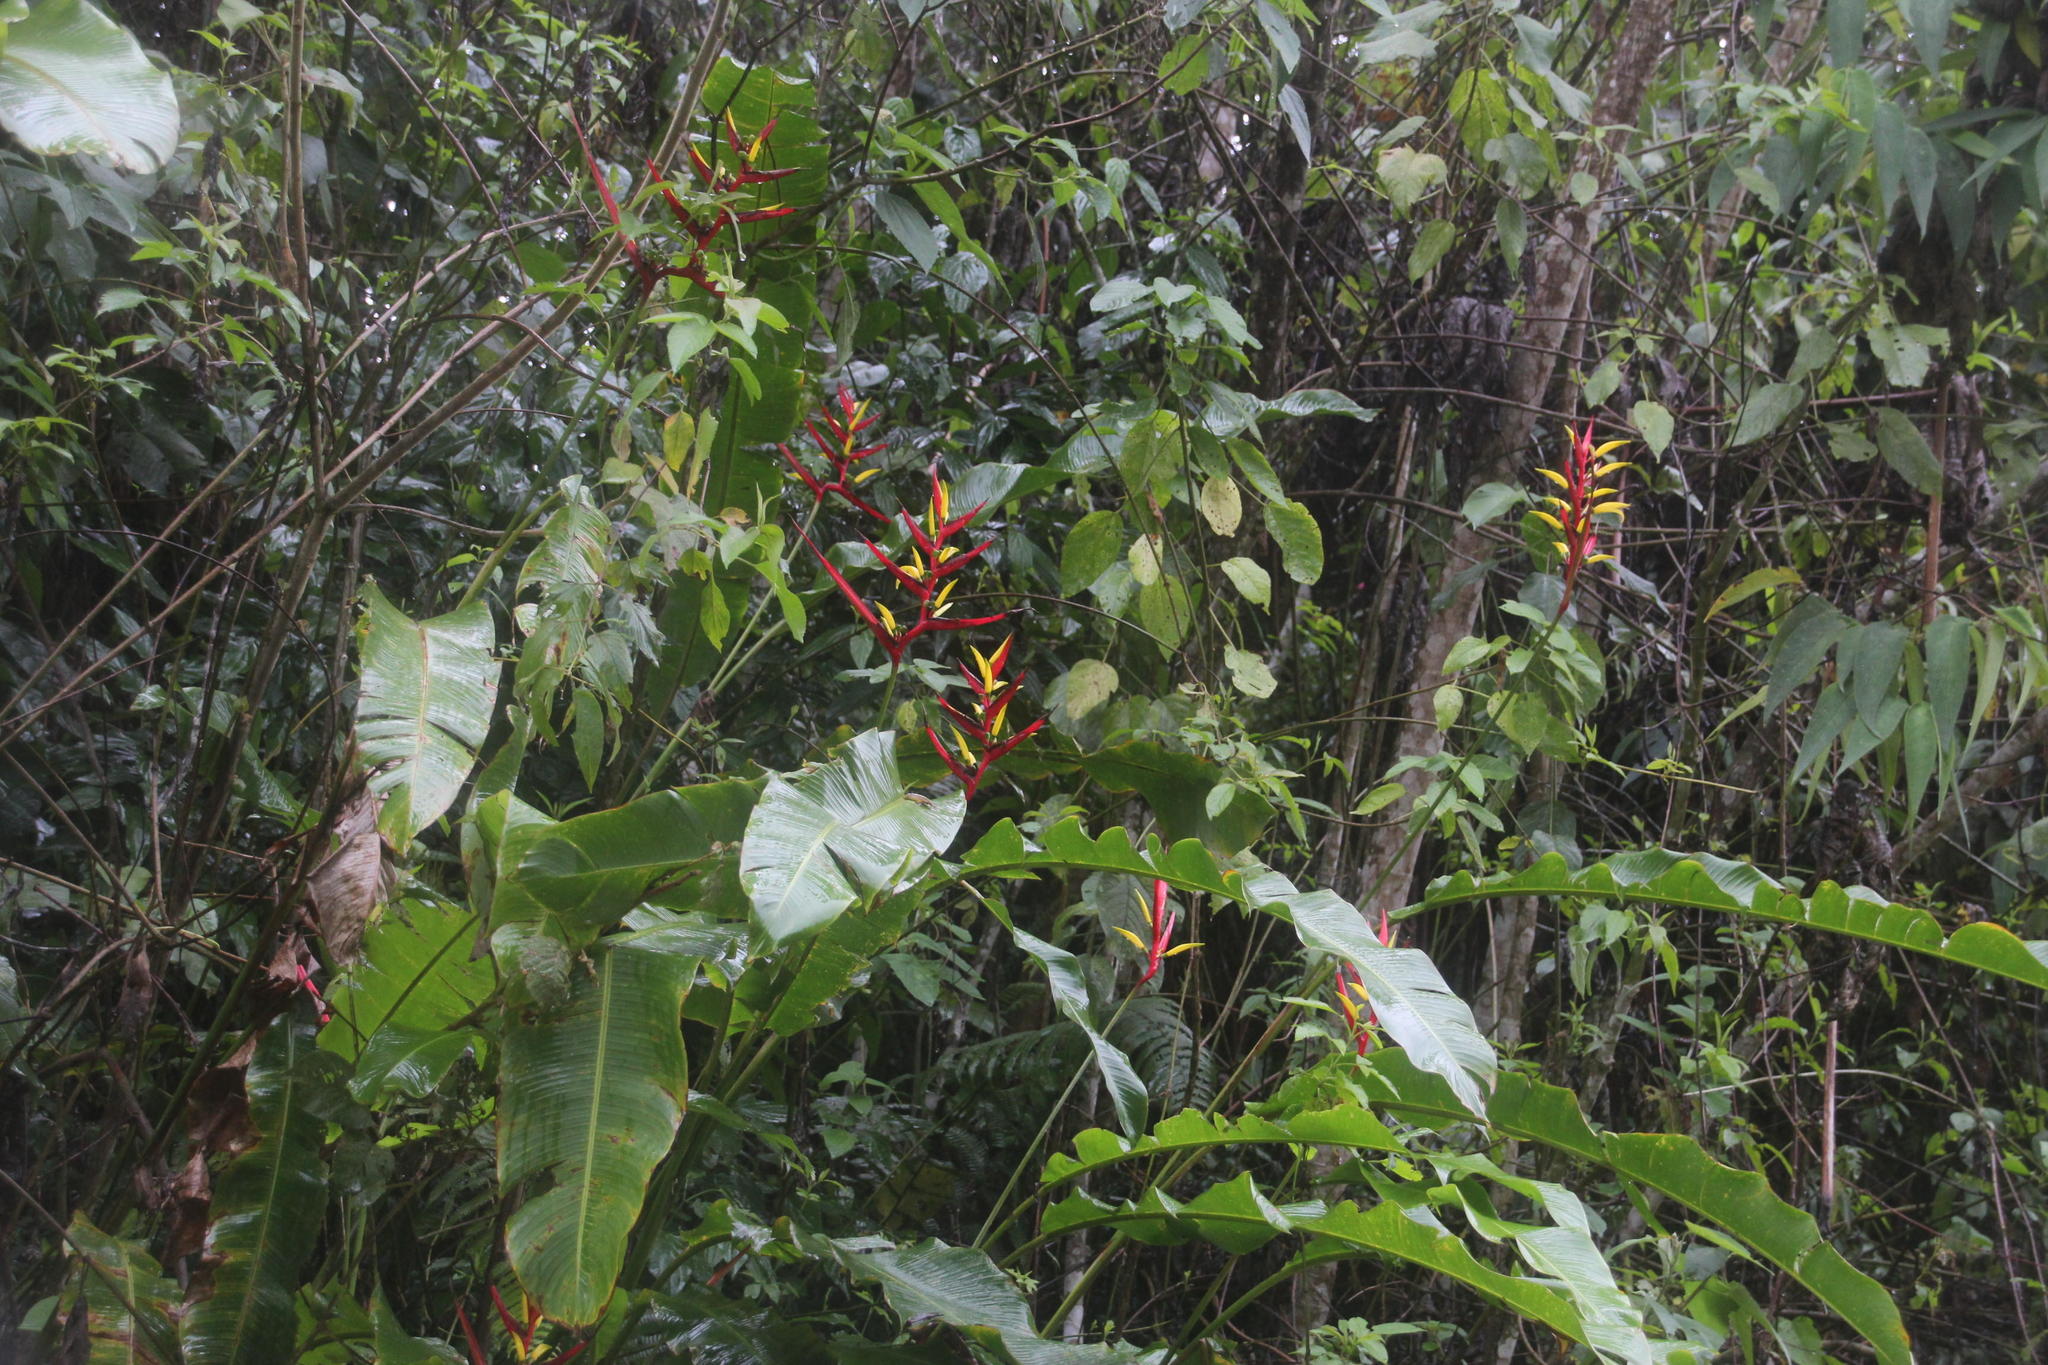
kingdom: Plantae
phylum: Tracheophyta
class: Liliopsida
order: Zingiberales
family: Heliconiaceae
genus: Heliconia
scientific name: Heliconia subulata
